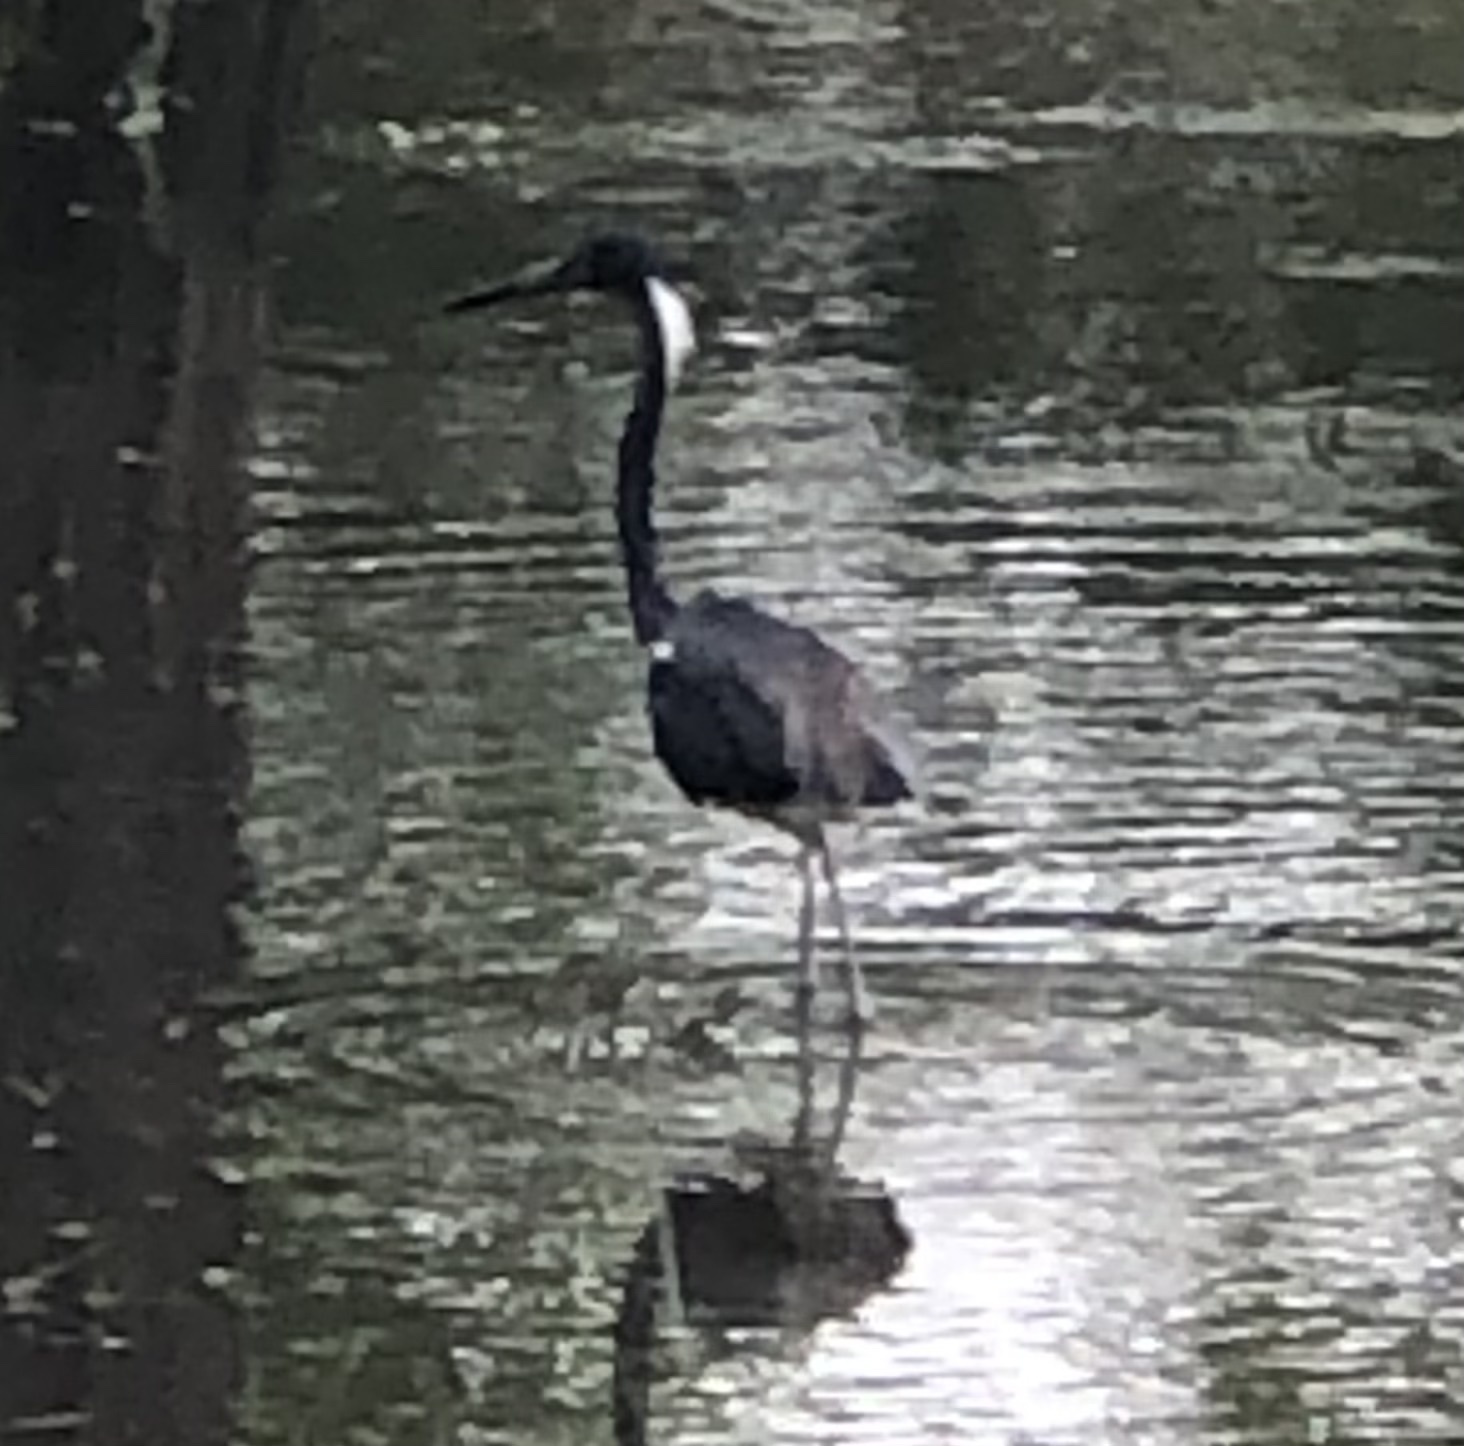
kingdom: Animalia
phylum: Chordata
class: Aves
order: Pelecaniformes
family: Ardeidae
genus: Egretta
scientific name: Egretta tricolor
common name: Tricolored heron
